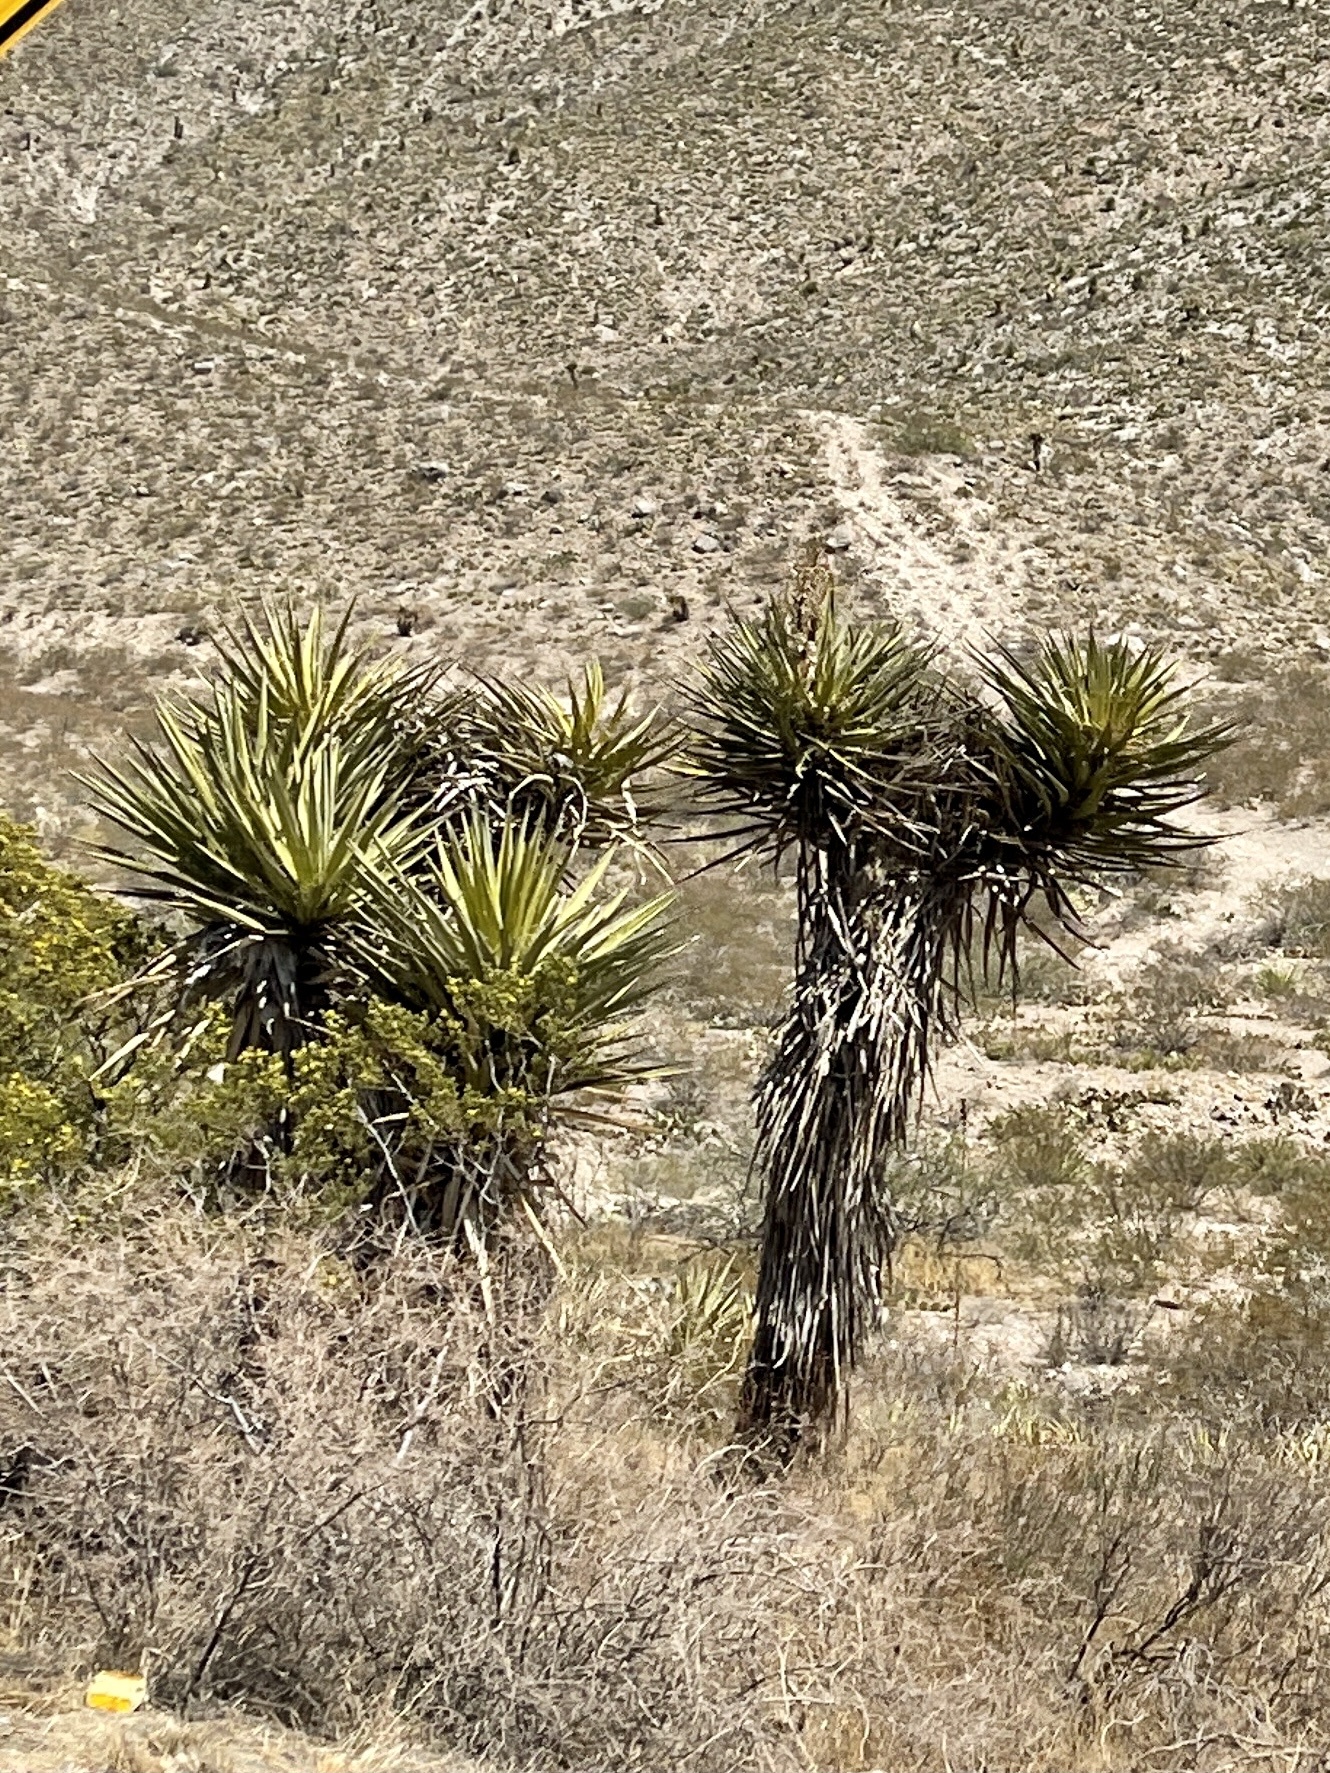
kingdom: Plantae
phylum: Tracheophyta
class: Liliopsida
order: Asparagales
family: Asparagaceae
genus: Yucca
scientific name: Yucca treculiana
